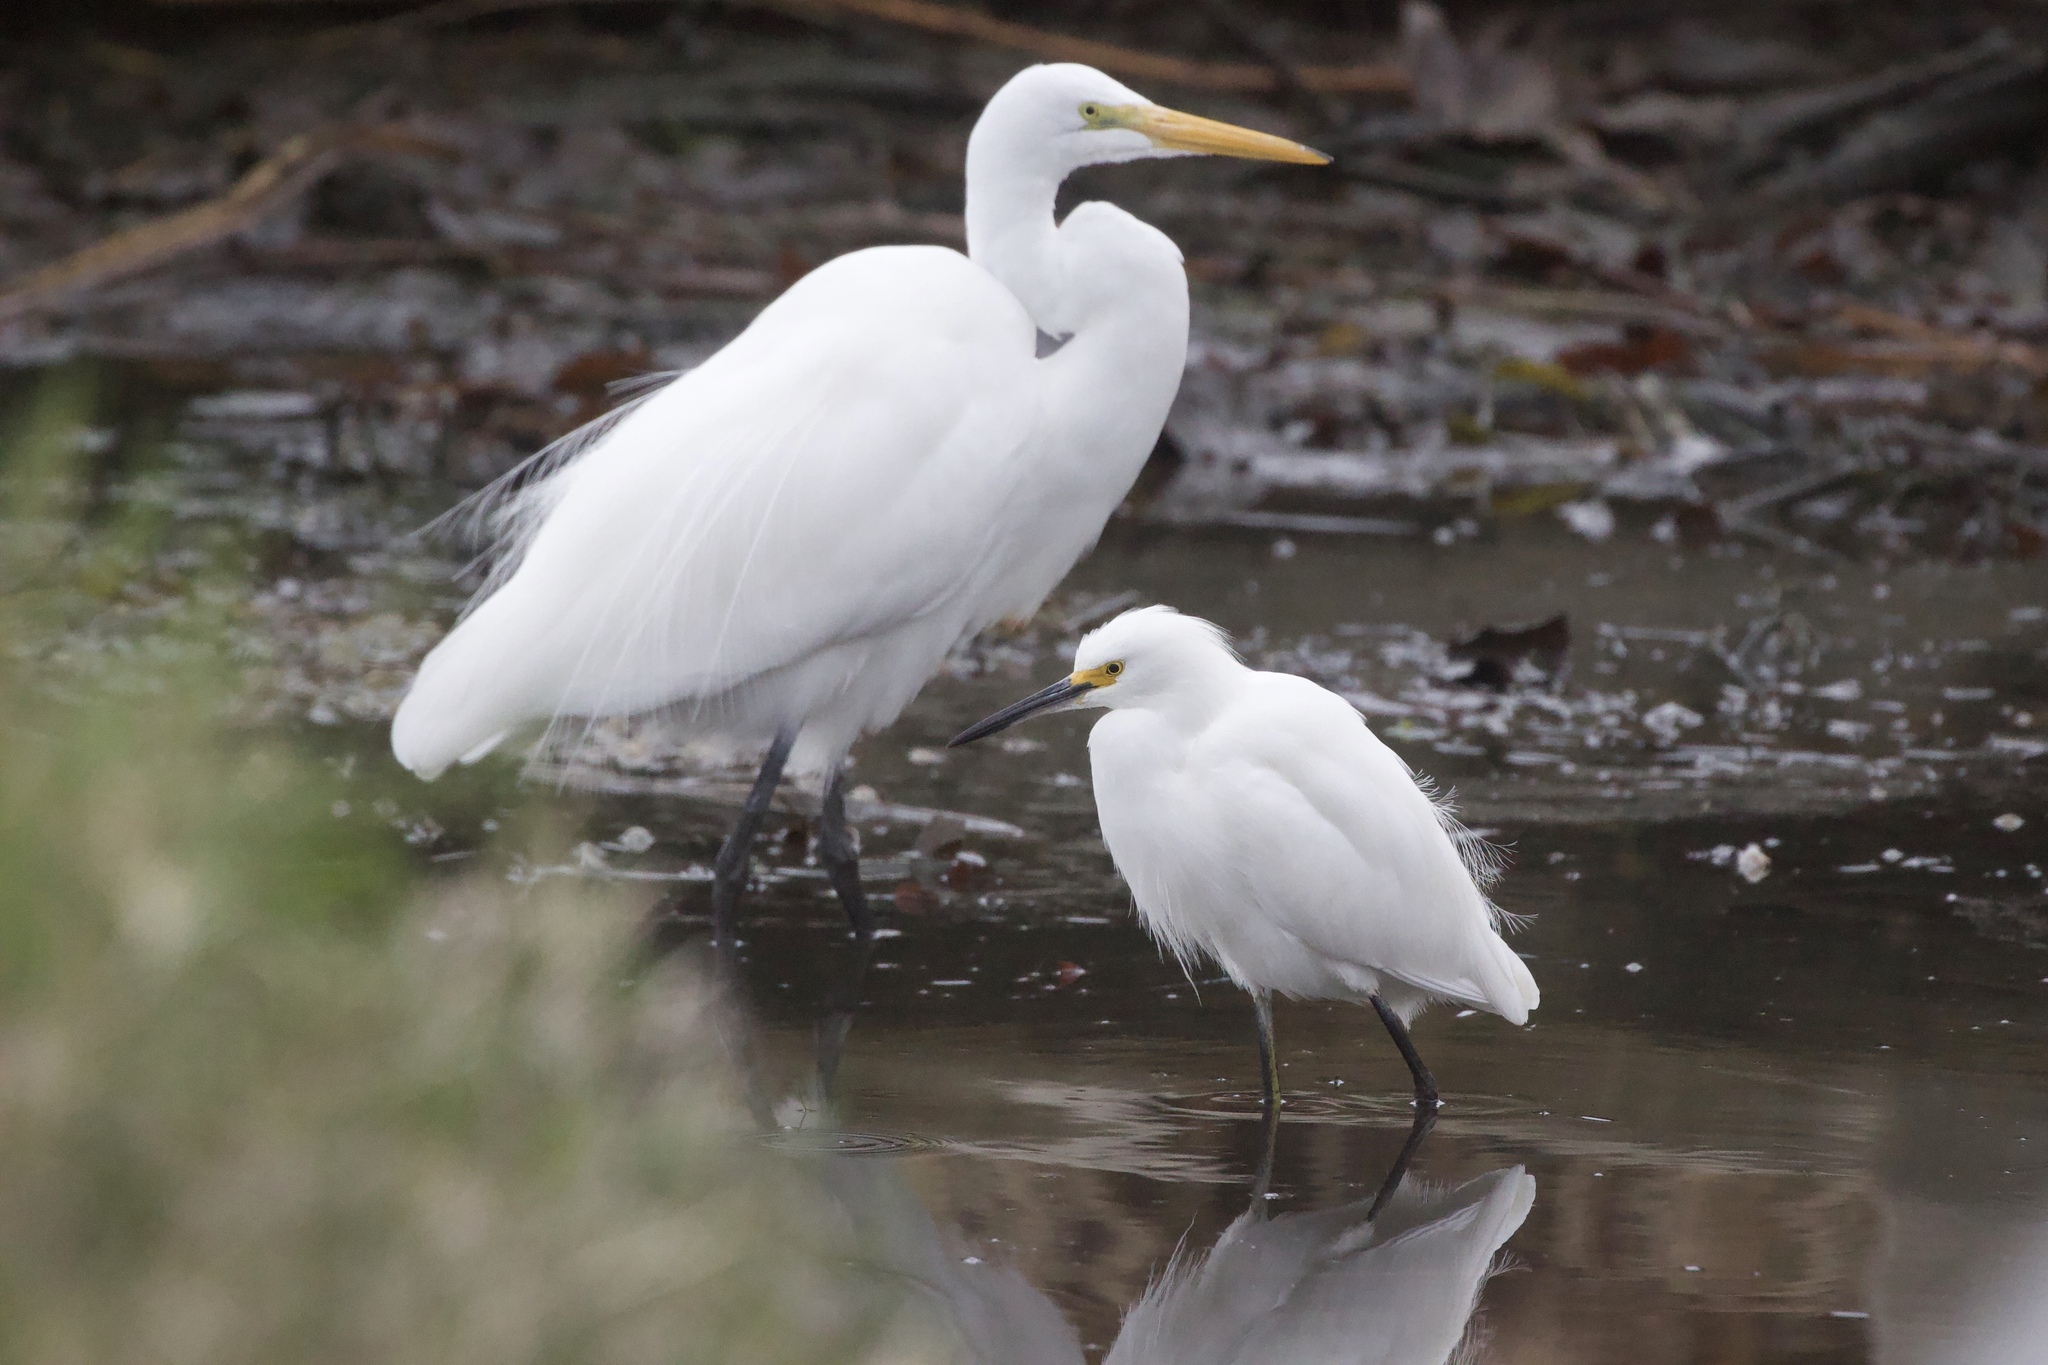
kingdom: Animalia
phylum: Chordata
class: Aves
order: Pelecaniformes
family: Ardeidae
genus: Egretta
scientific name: Egretta thula
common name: Snowy egret
